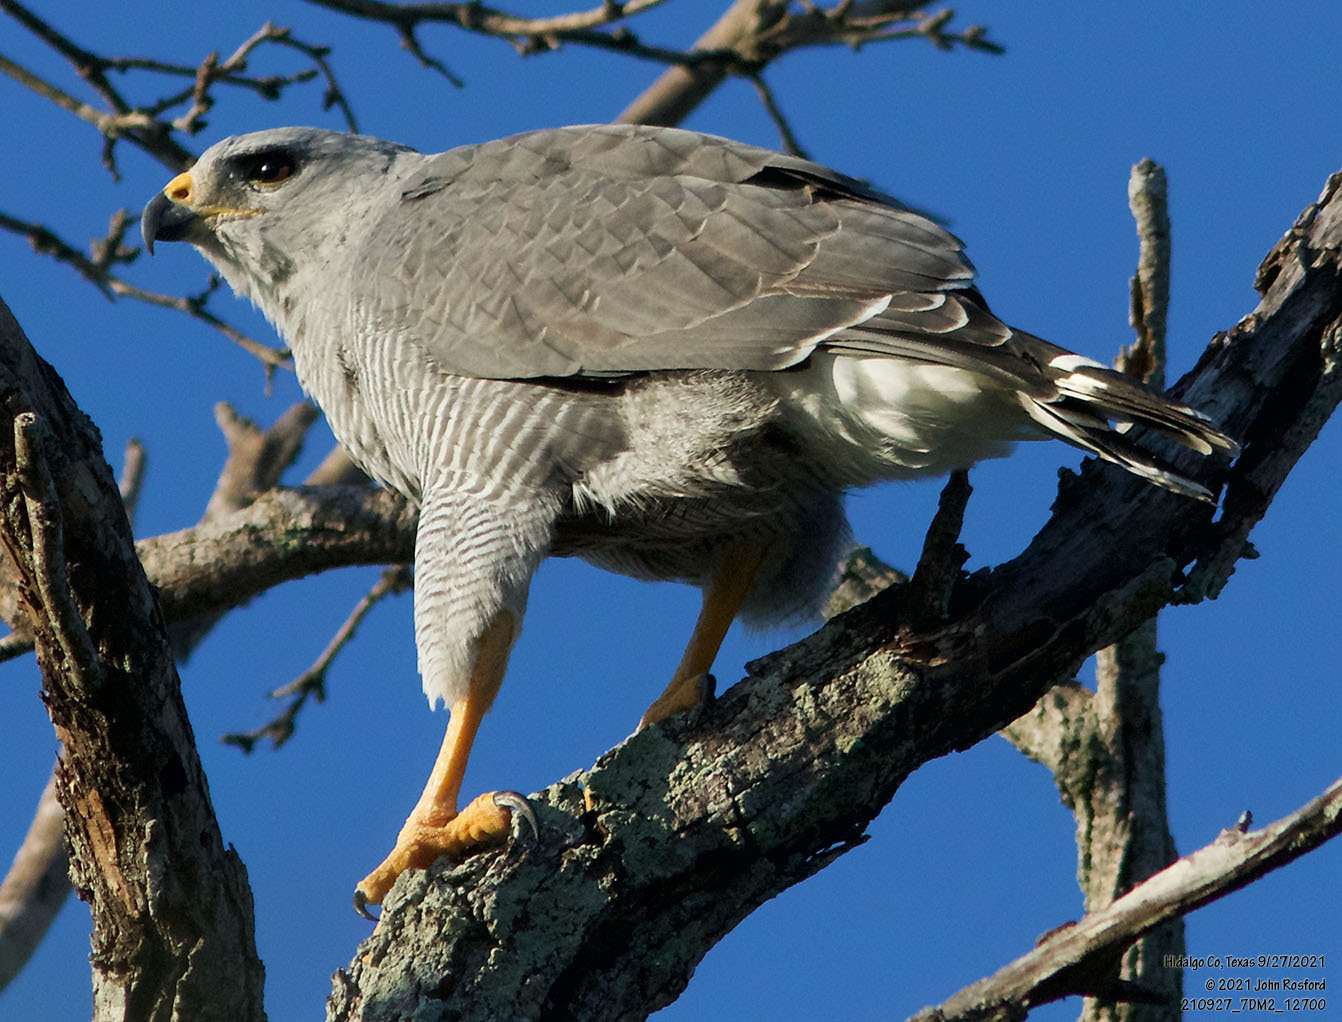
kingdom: Animalia
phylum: Chordata
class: Aves
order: Accipitriformes
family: Accipitridae
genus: Buteo
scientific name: Buteo nitidus
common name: Grey-lined hawk
